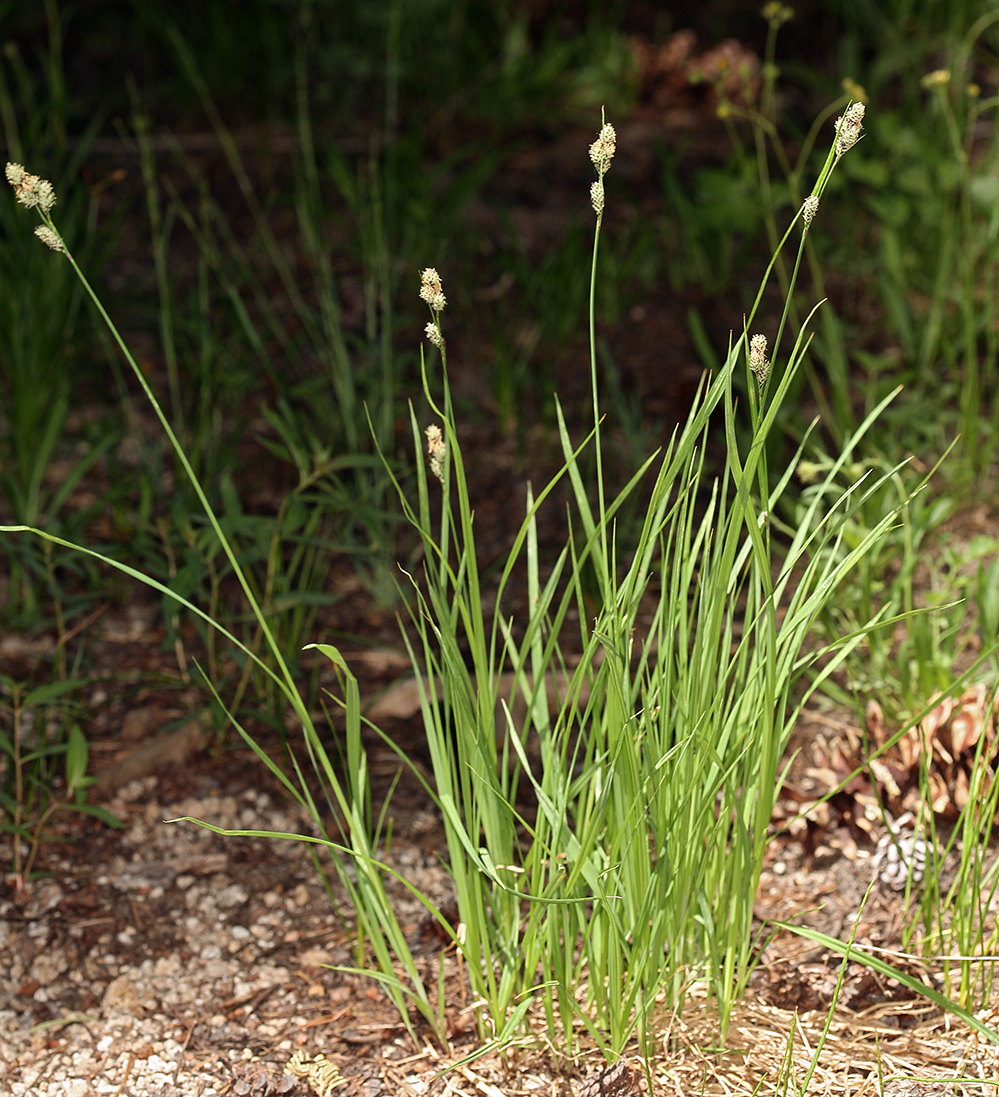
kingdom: Plantae
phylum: Tracheophyta
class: Liliopsida
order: Poales
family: Cyperaceae
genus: Carex
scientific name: Carex buxbaumii
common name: Club sedge
